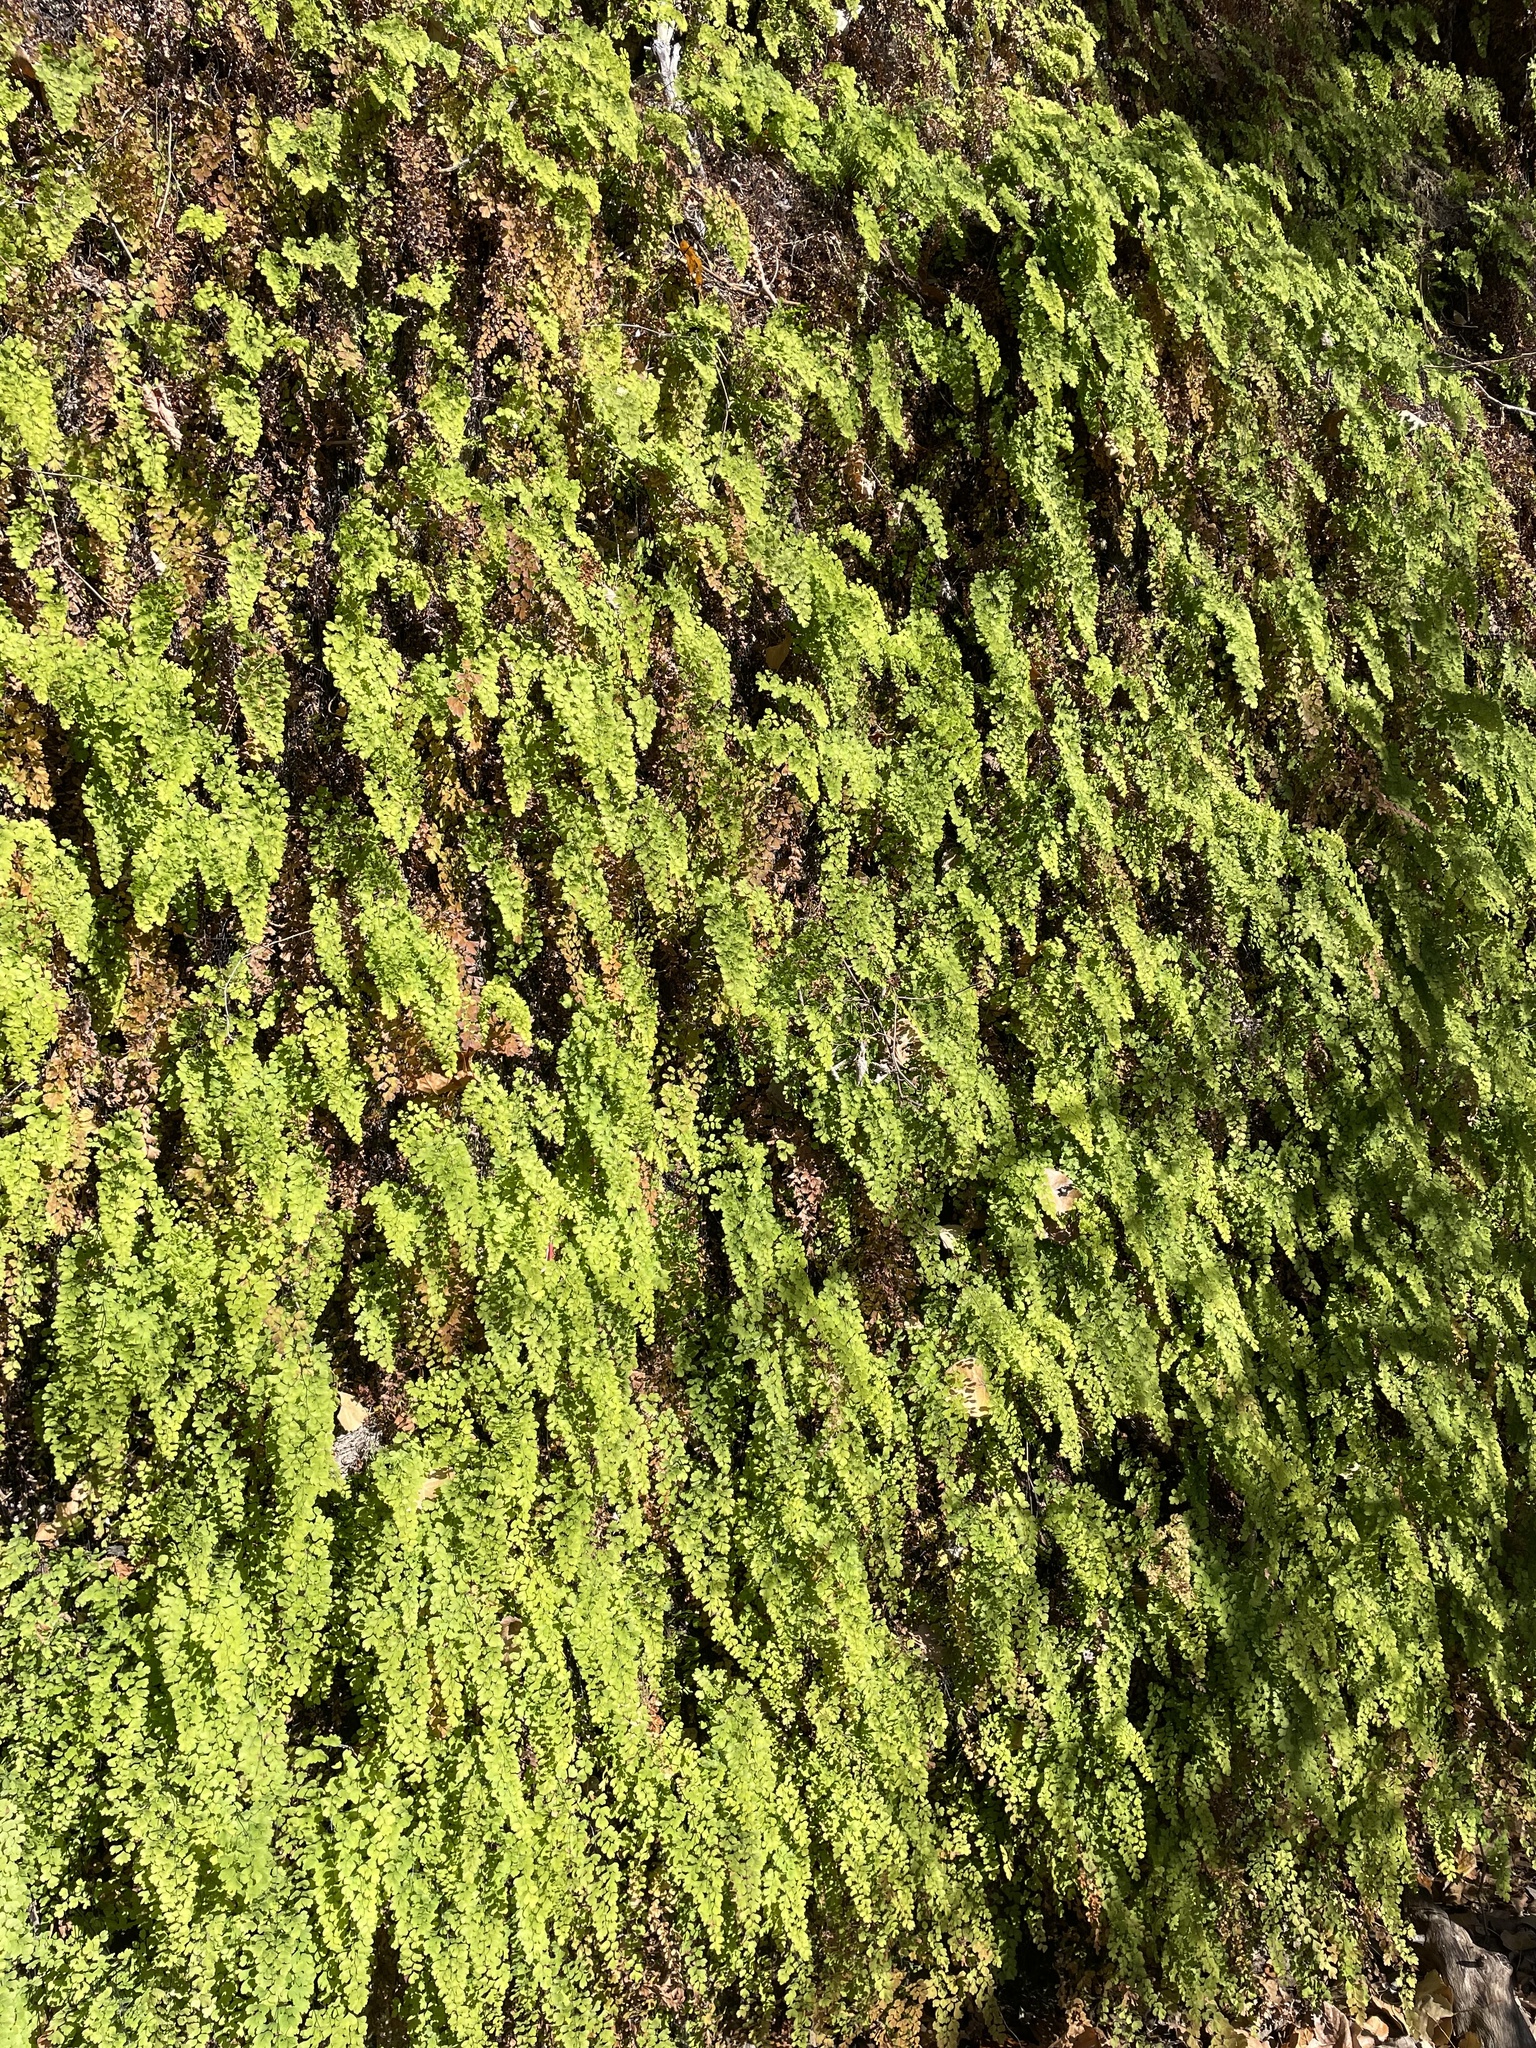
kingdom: Plantae
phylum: Tracheophyta
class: Polypodiopsida
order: Polypodiales
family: Pteridaceae
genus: Adiantum
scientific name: Adiantum capillus-veneris
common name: Maidenhair fern
